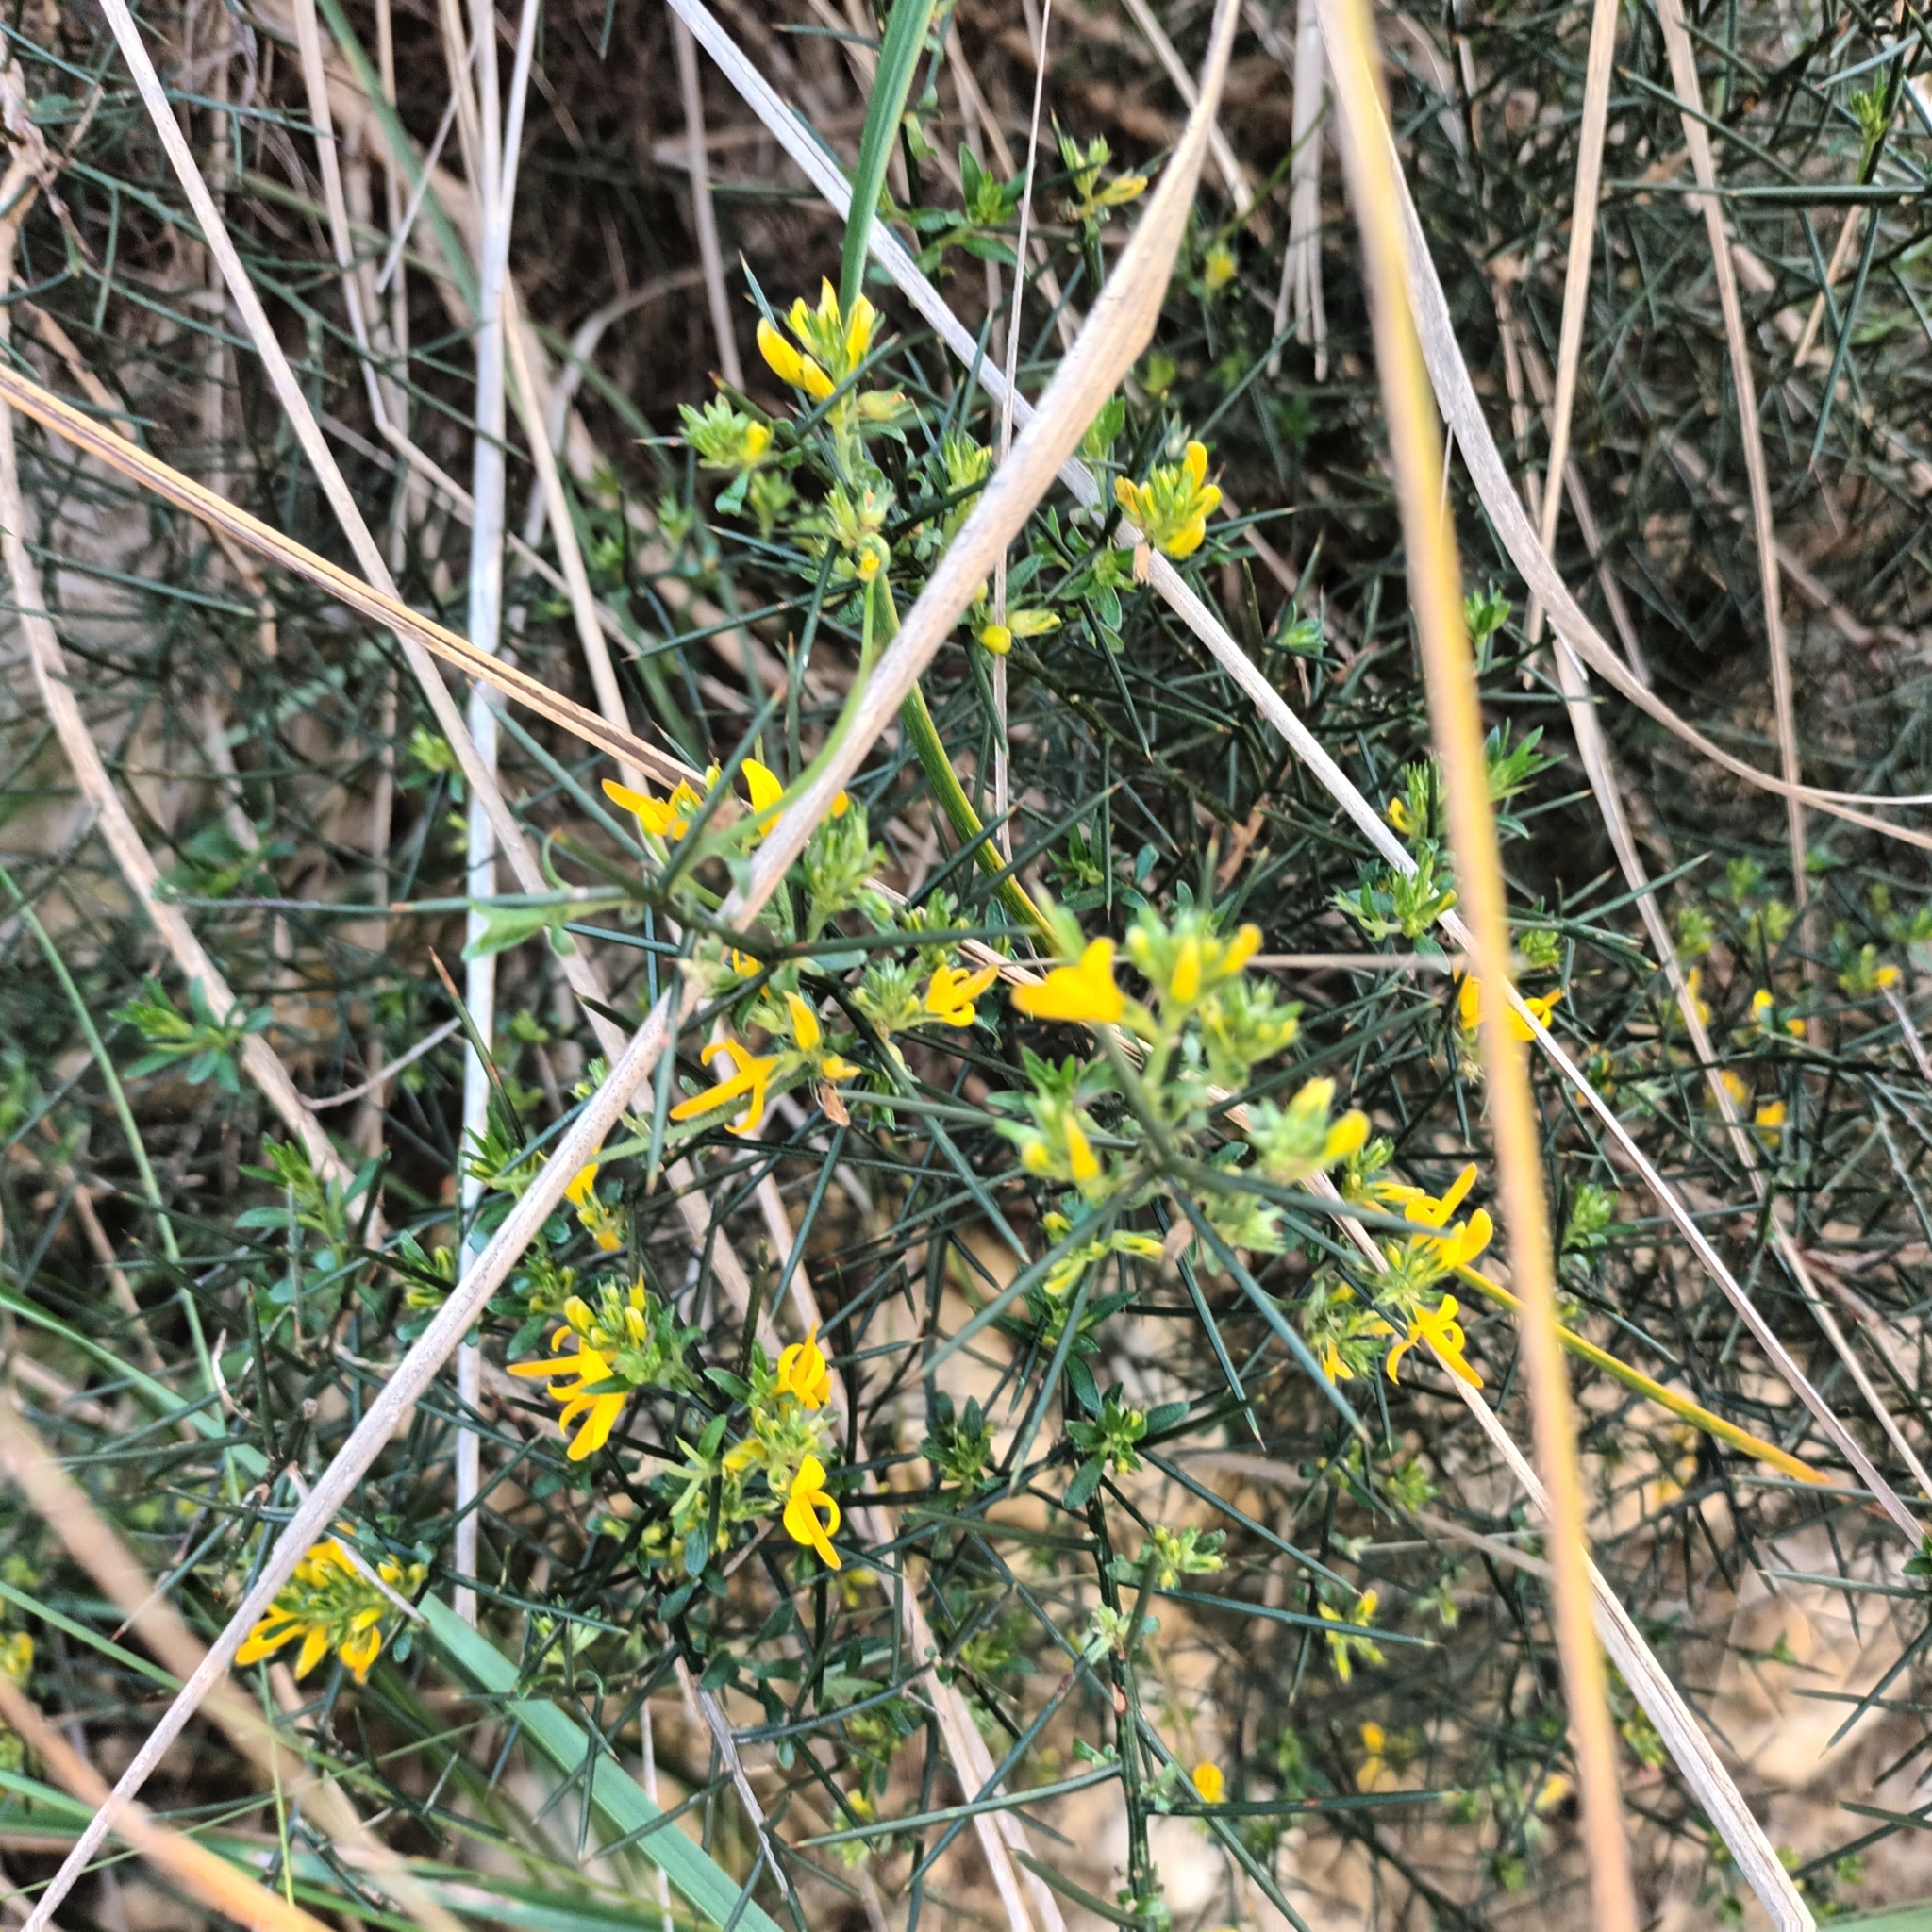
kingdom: Plantae
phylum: Tracheophyta
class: Magnoliopsida
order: Fabales
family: Fabaceae
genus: Genista
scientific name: Genista tricuspidata
